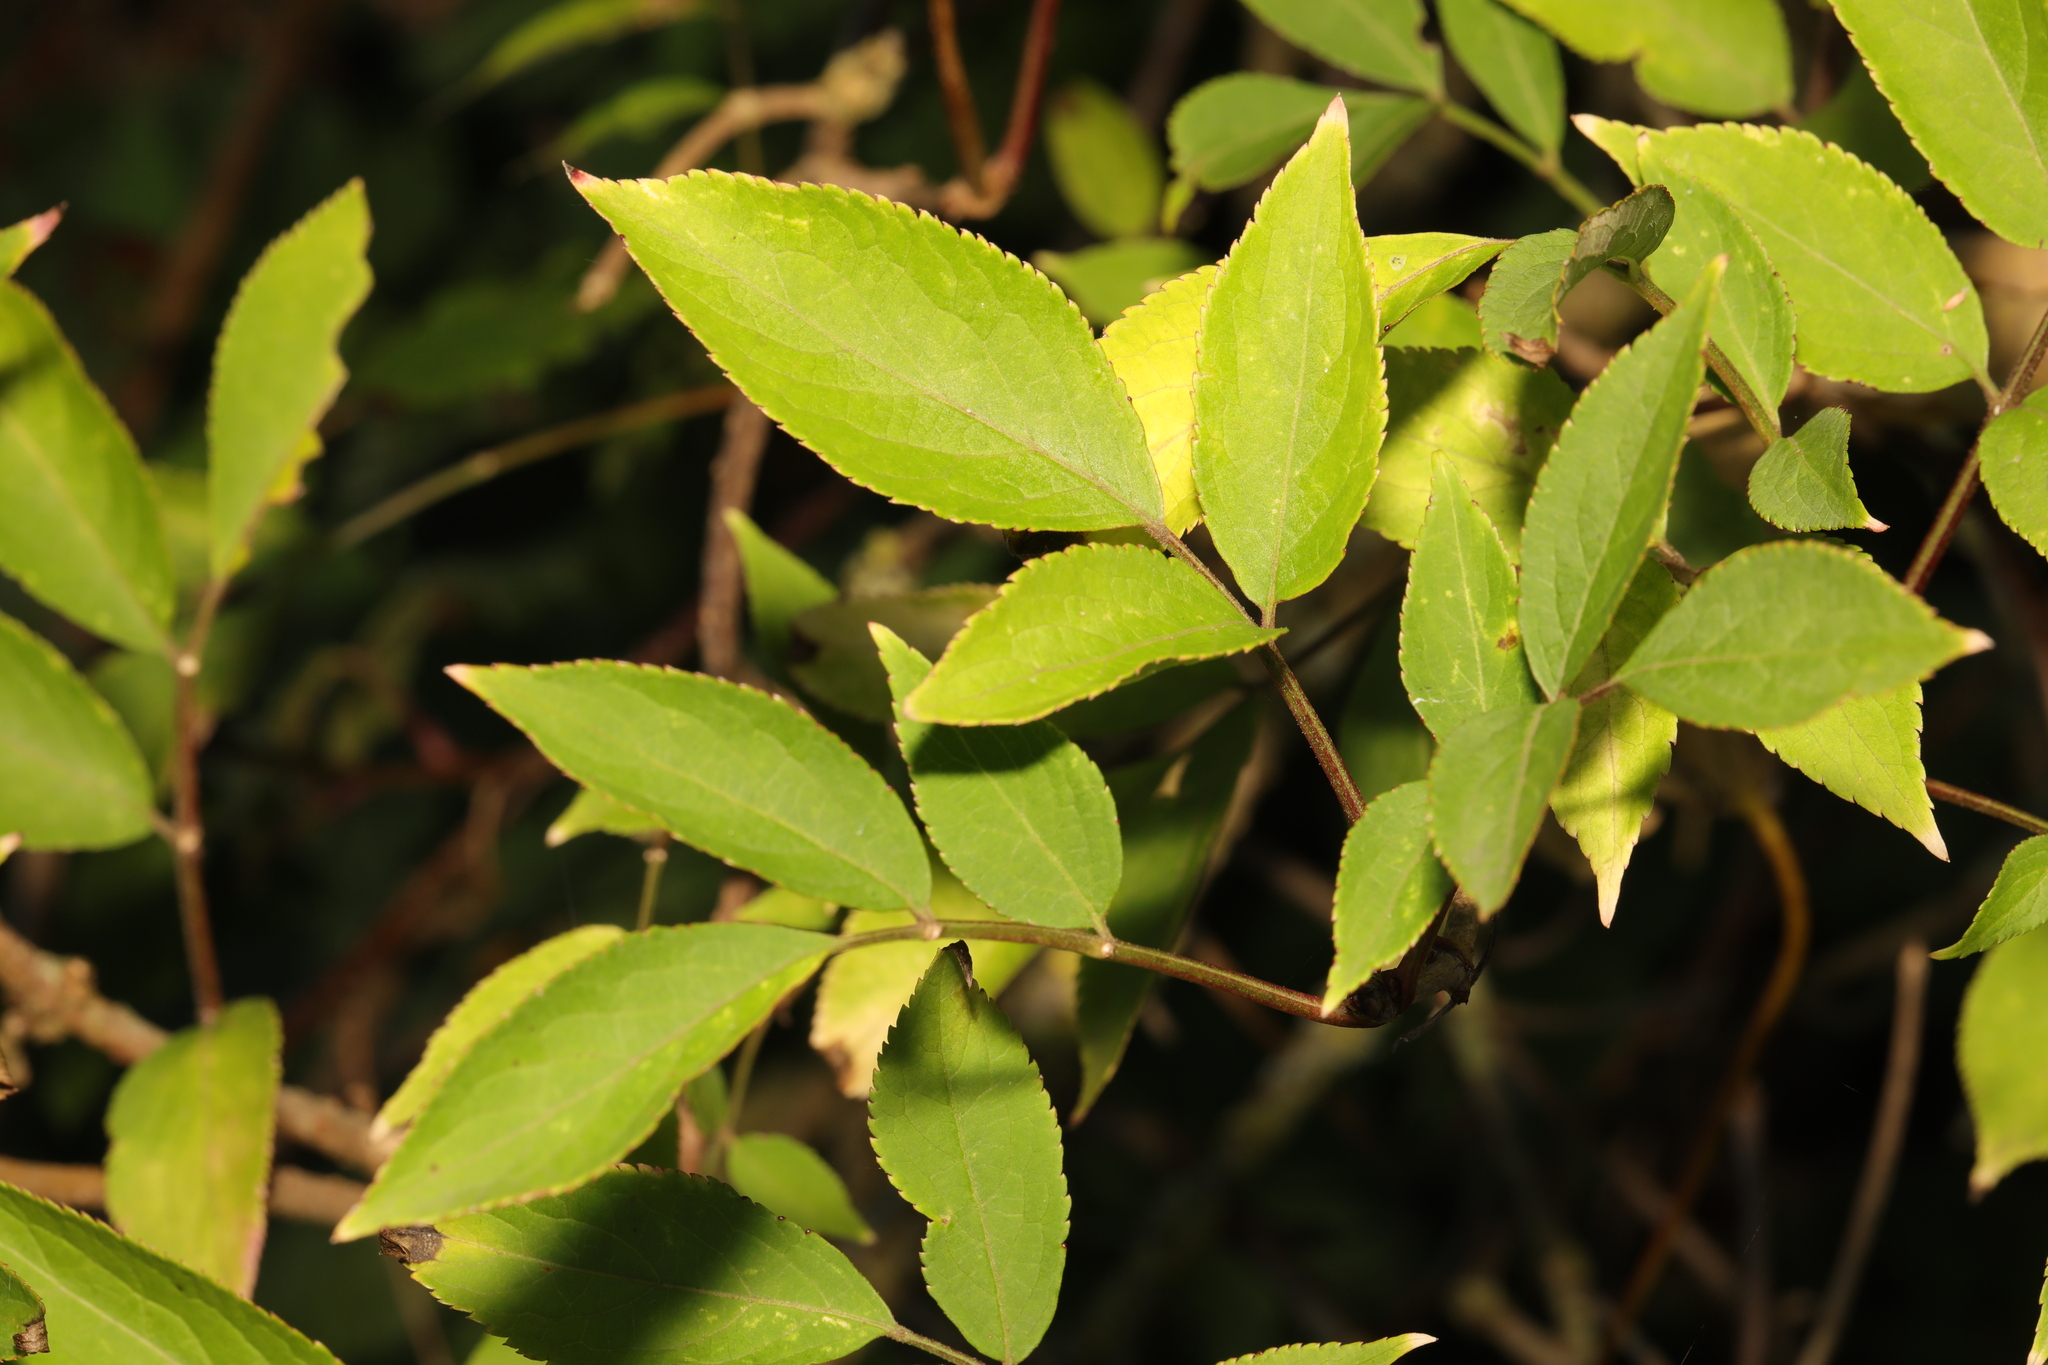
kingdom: Plantae
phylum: Tracheophyta
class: Magnoliopsida
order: Dipsacales
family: Viburnaceae
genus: Sambucus
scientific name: Sambucus nigra
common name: Elder
